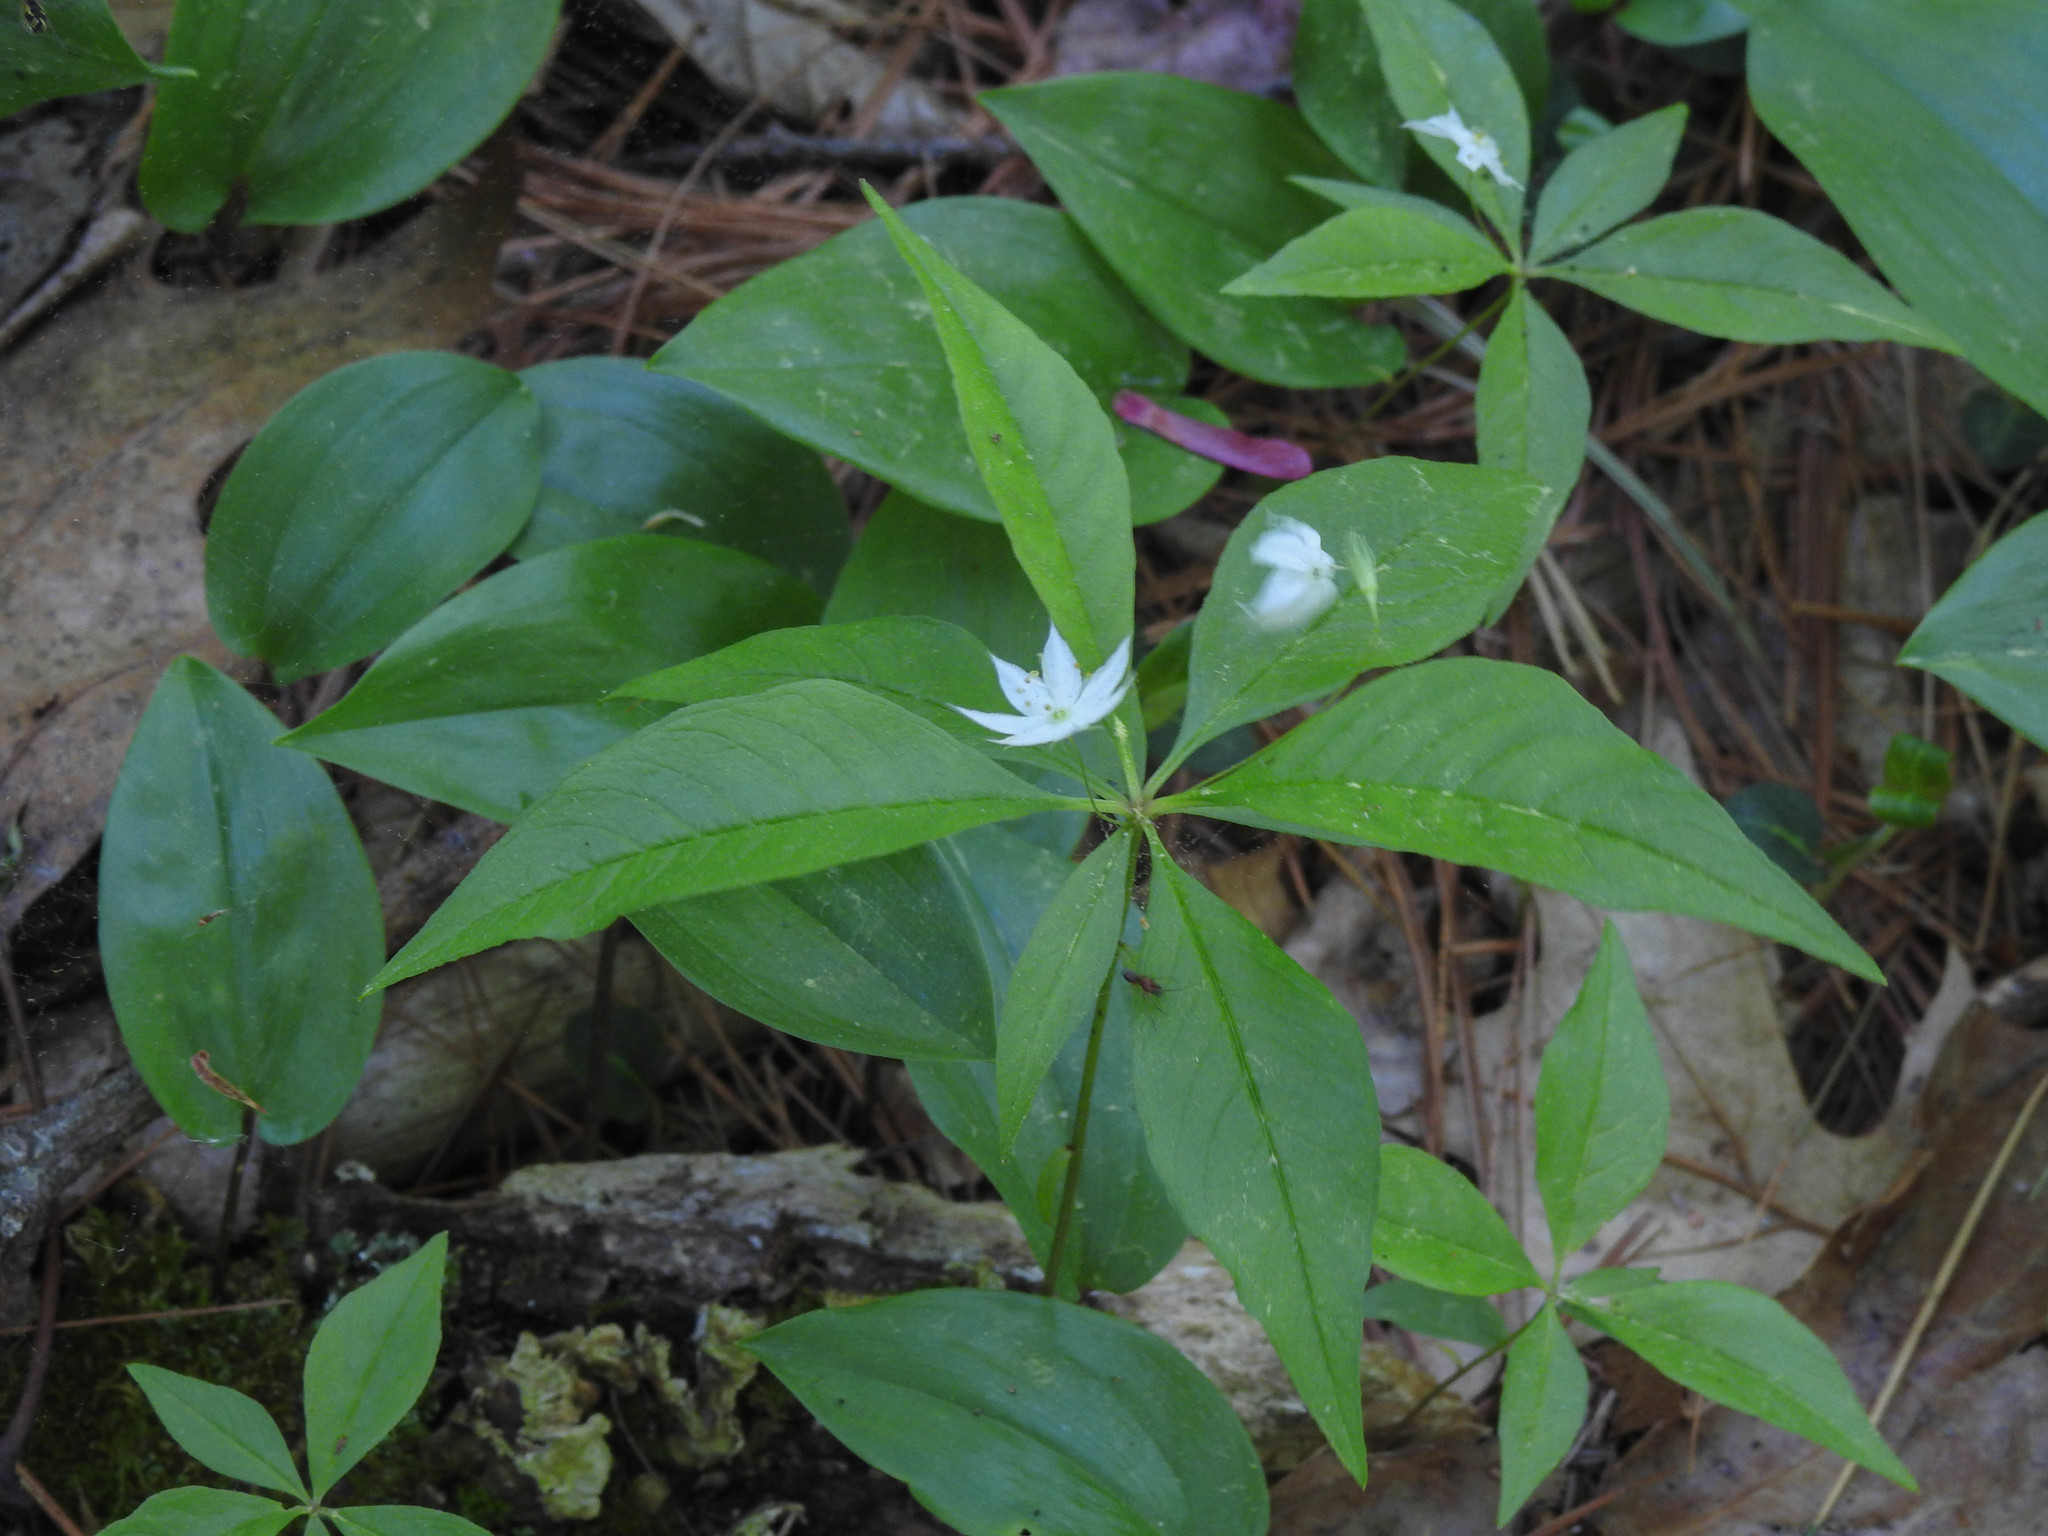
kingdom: Plantae
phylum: Tracheophyta
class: Magnoliopsida
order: Ericales
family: Primulaceae
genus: Lysimachia
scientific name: Lysimachia borealis
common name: American starflower
